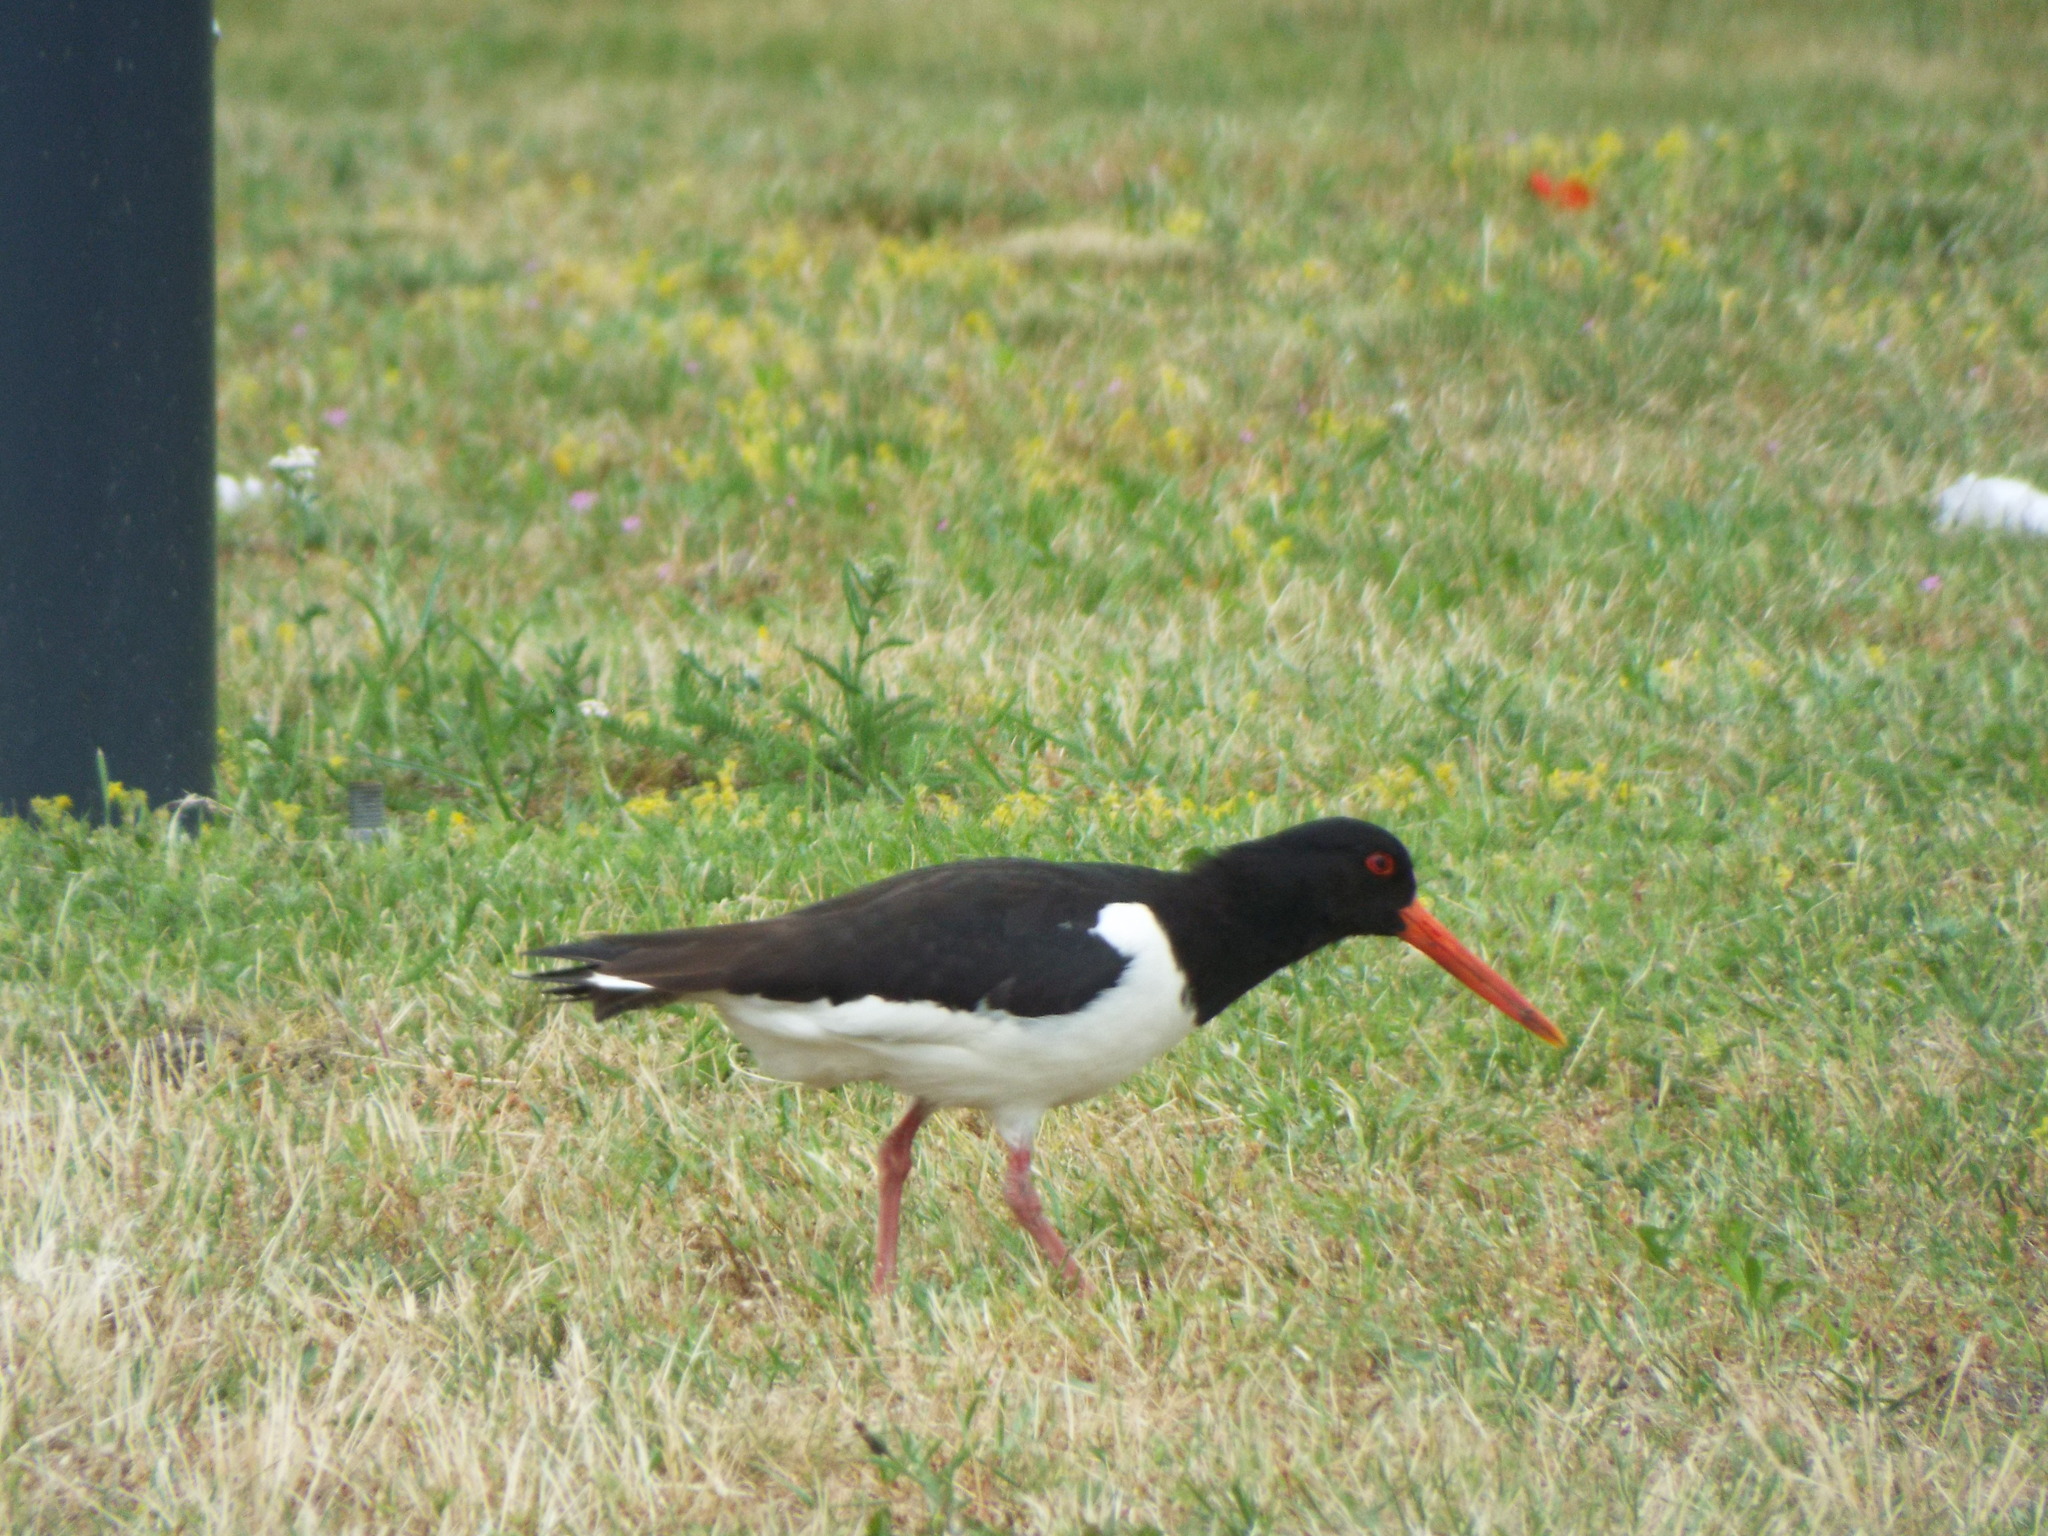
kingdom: Animalia
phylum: Chordata
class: Aves
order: Charadriiformes
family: Haematopodidae
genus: Haematopus
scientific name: Haematopus ostralegus
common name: Eurasian oystercatcher
